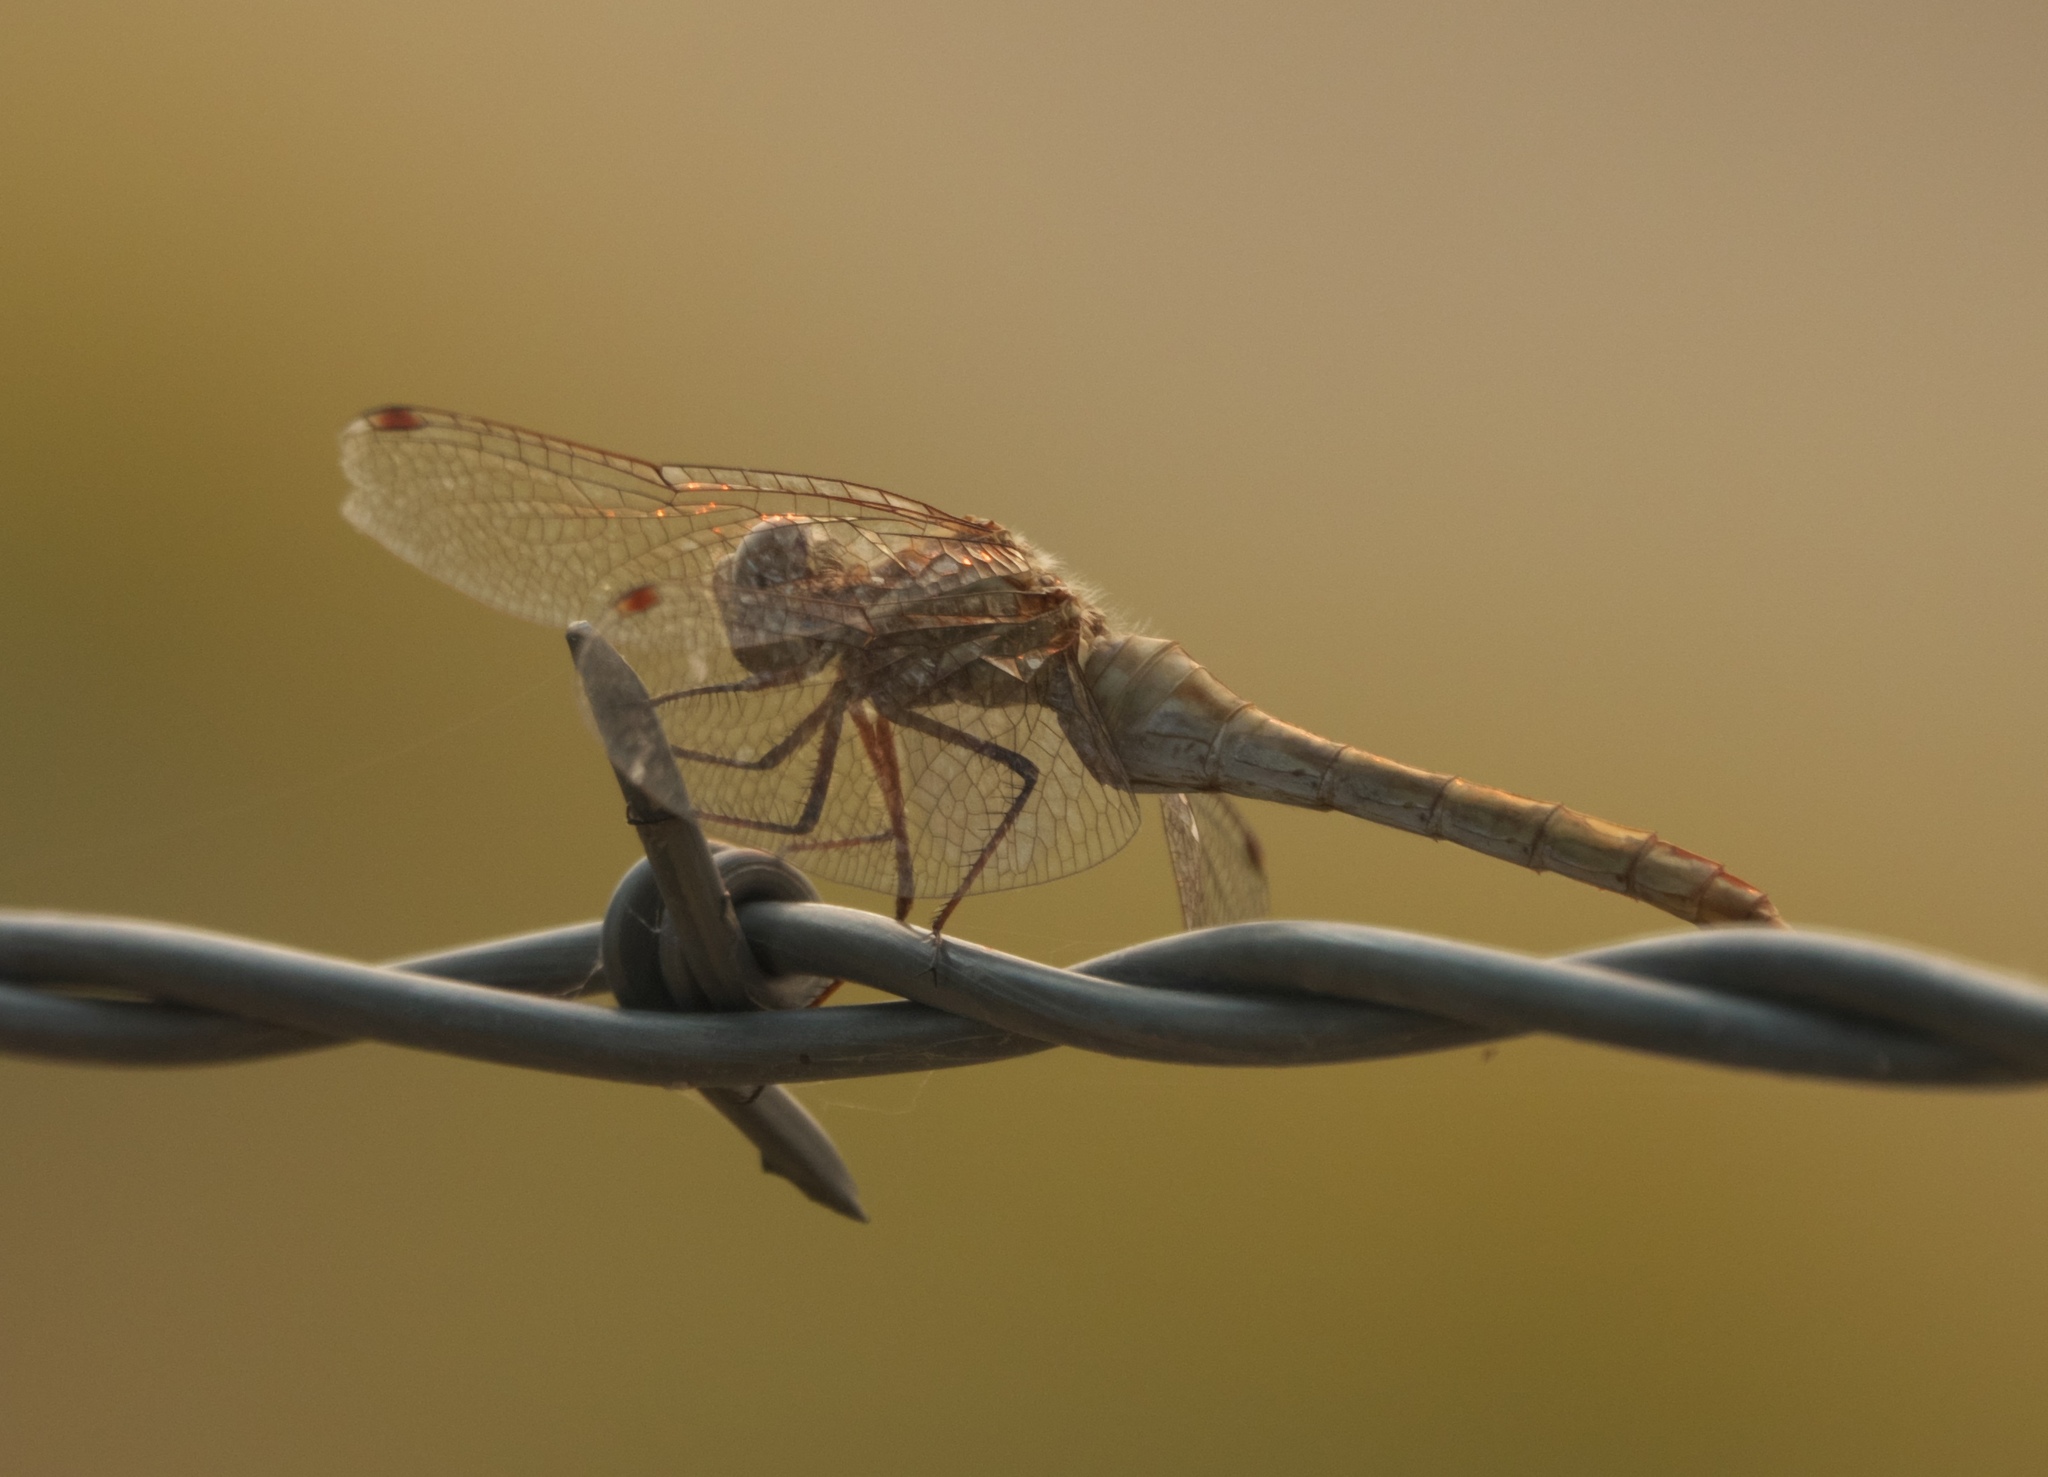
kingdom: Animalia
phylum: Arthropoda
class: Insecta
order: Odonata
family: Libellulidae
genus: Sympetrum
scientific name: Sympetrum pallipes
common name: Striped meadowhawk
